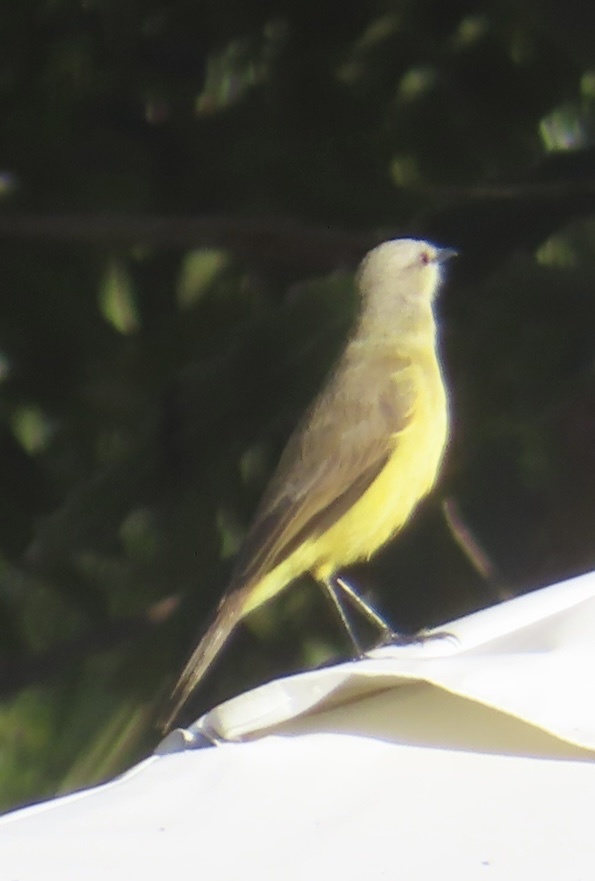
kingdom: Animalia
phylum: Chordata
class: Aves
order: Passeriformes
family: Tyrannidae
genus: Machetornis
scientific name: Machetornis rixosa
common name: Cattle tyrant
